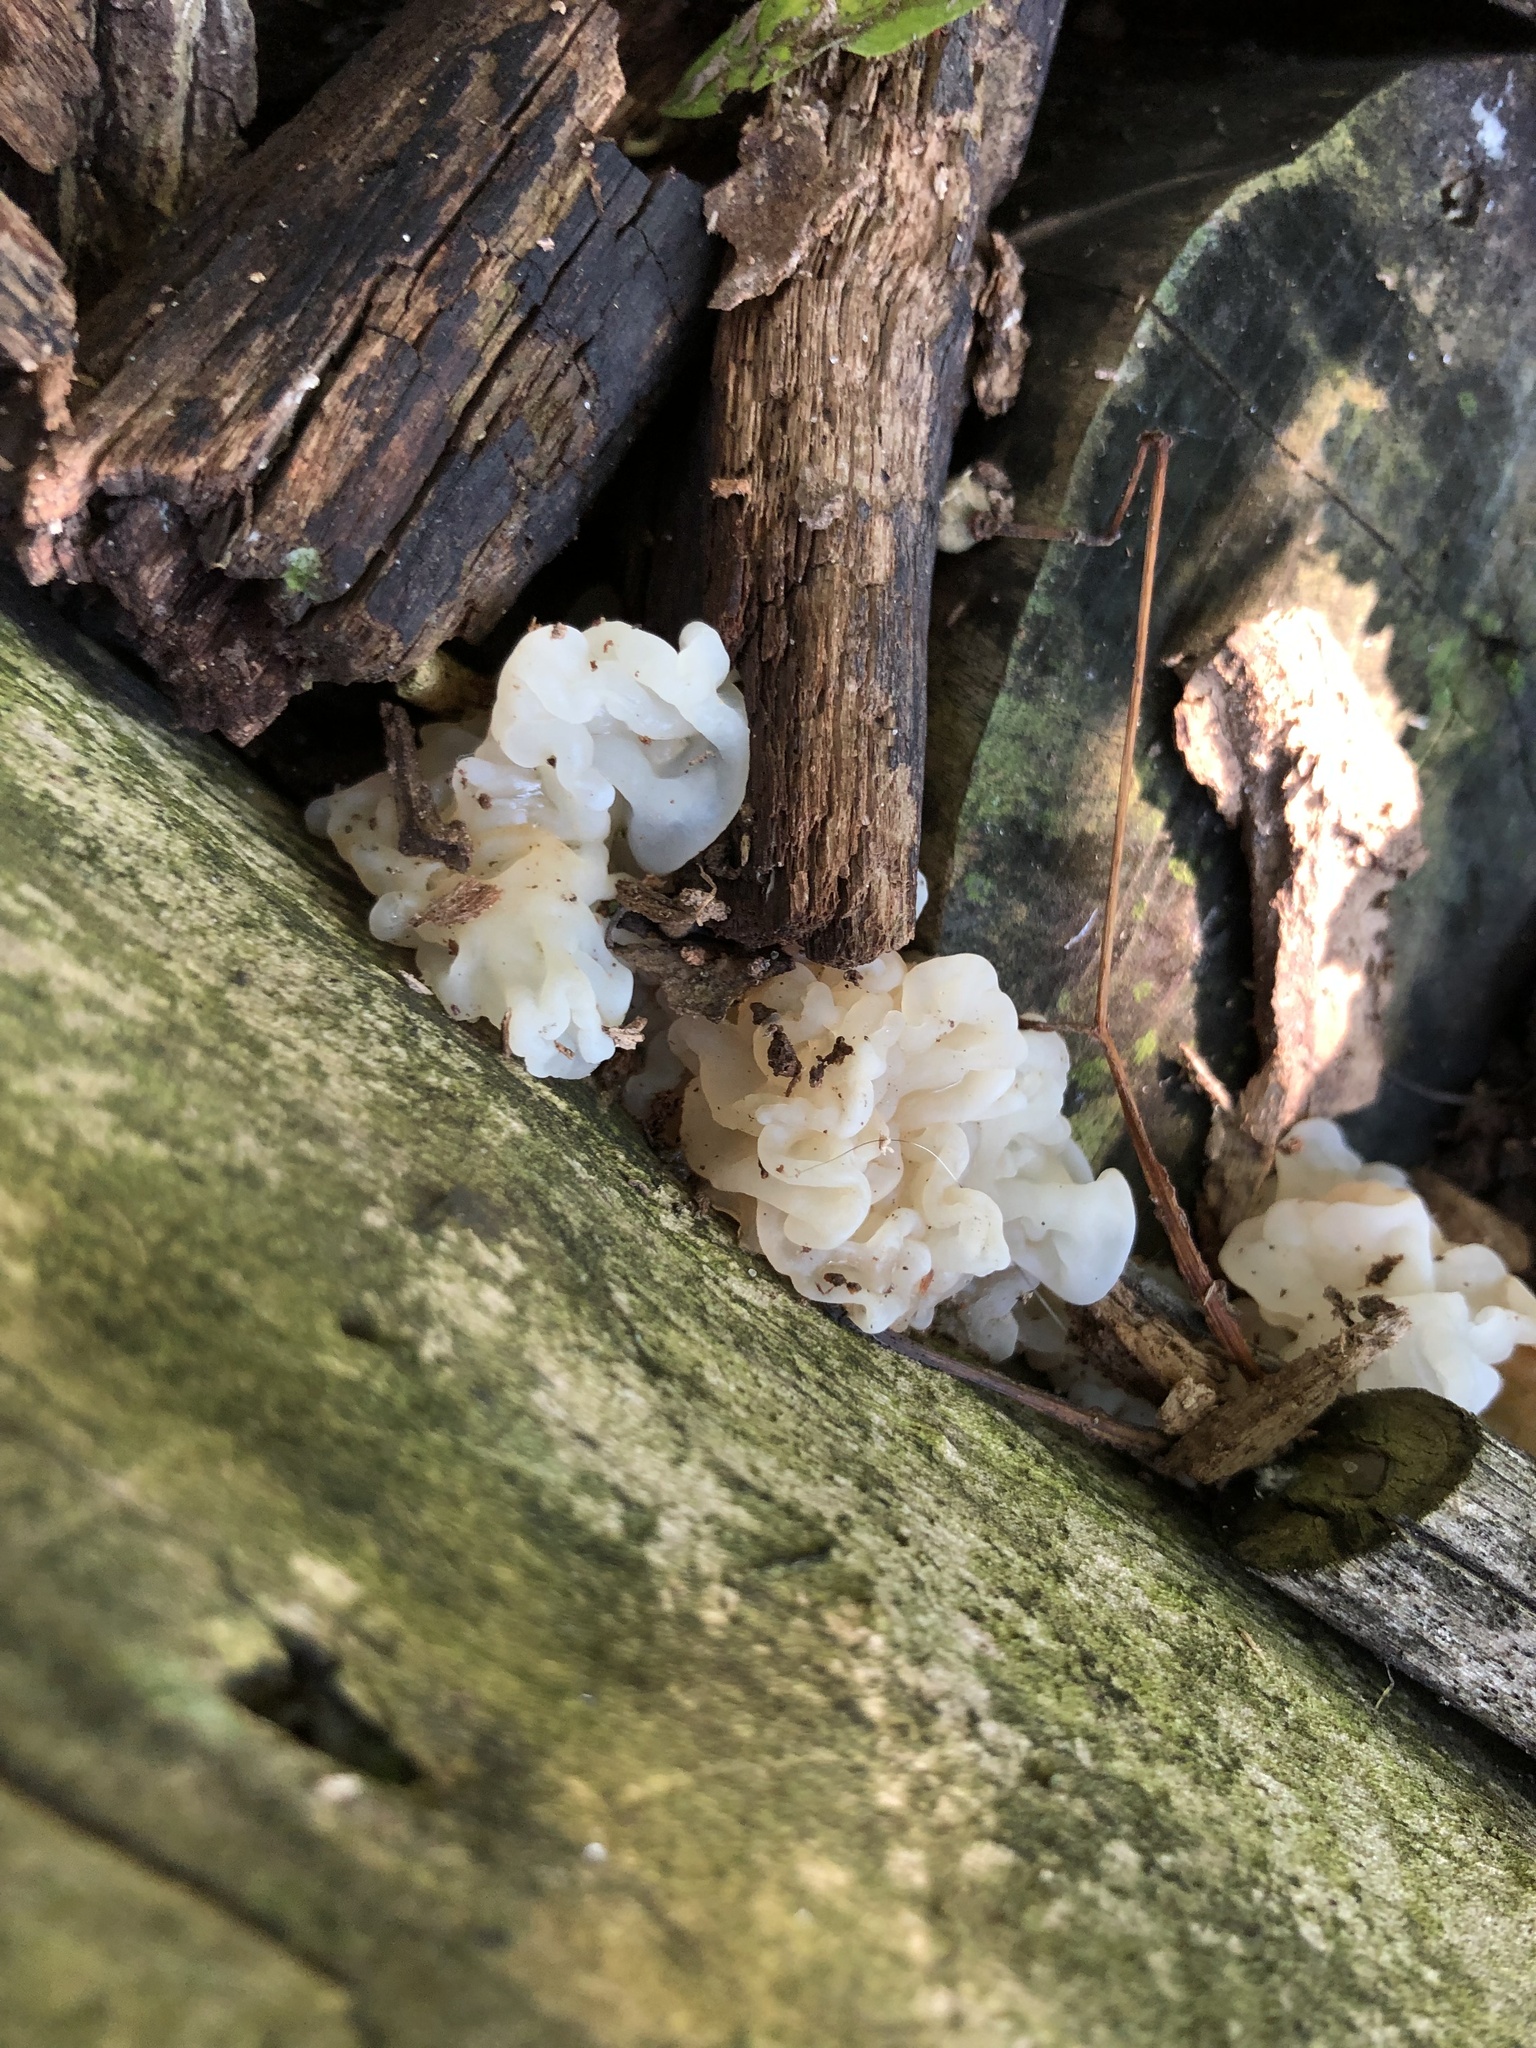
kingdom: Fungi
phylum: Basidiomycota
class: Agaricomycetes
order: Auriculariales
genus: Ductifera
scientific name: Ductifera pululahuana
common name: White jelly fungus
